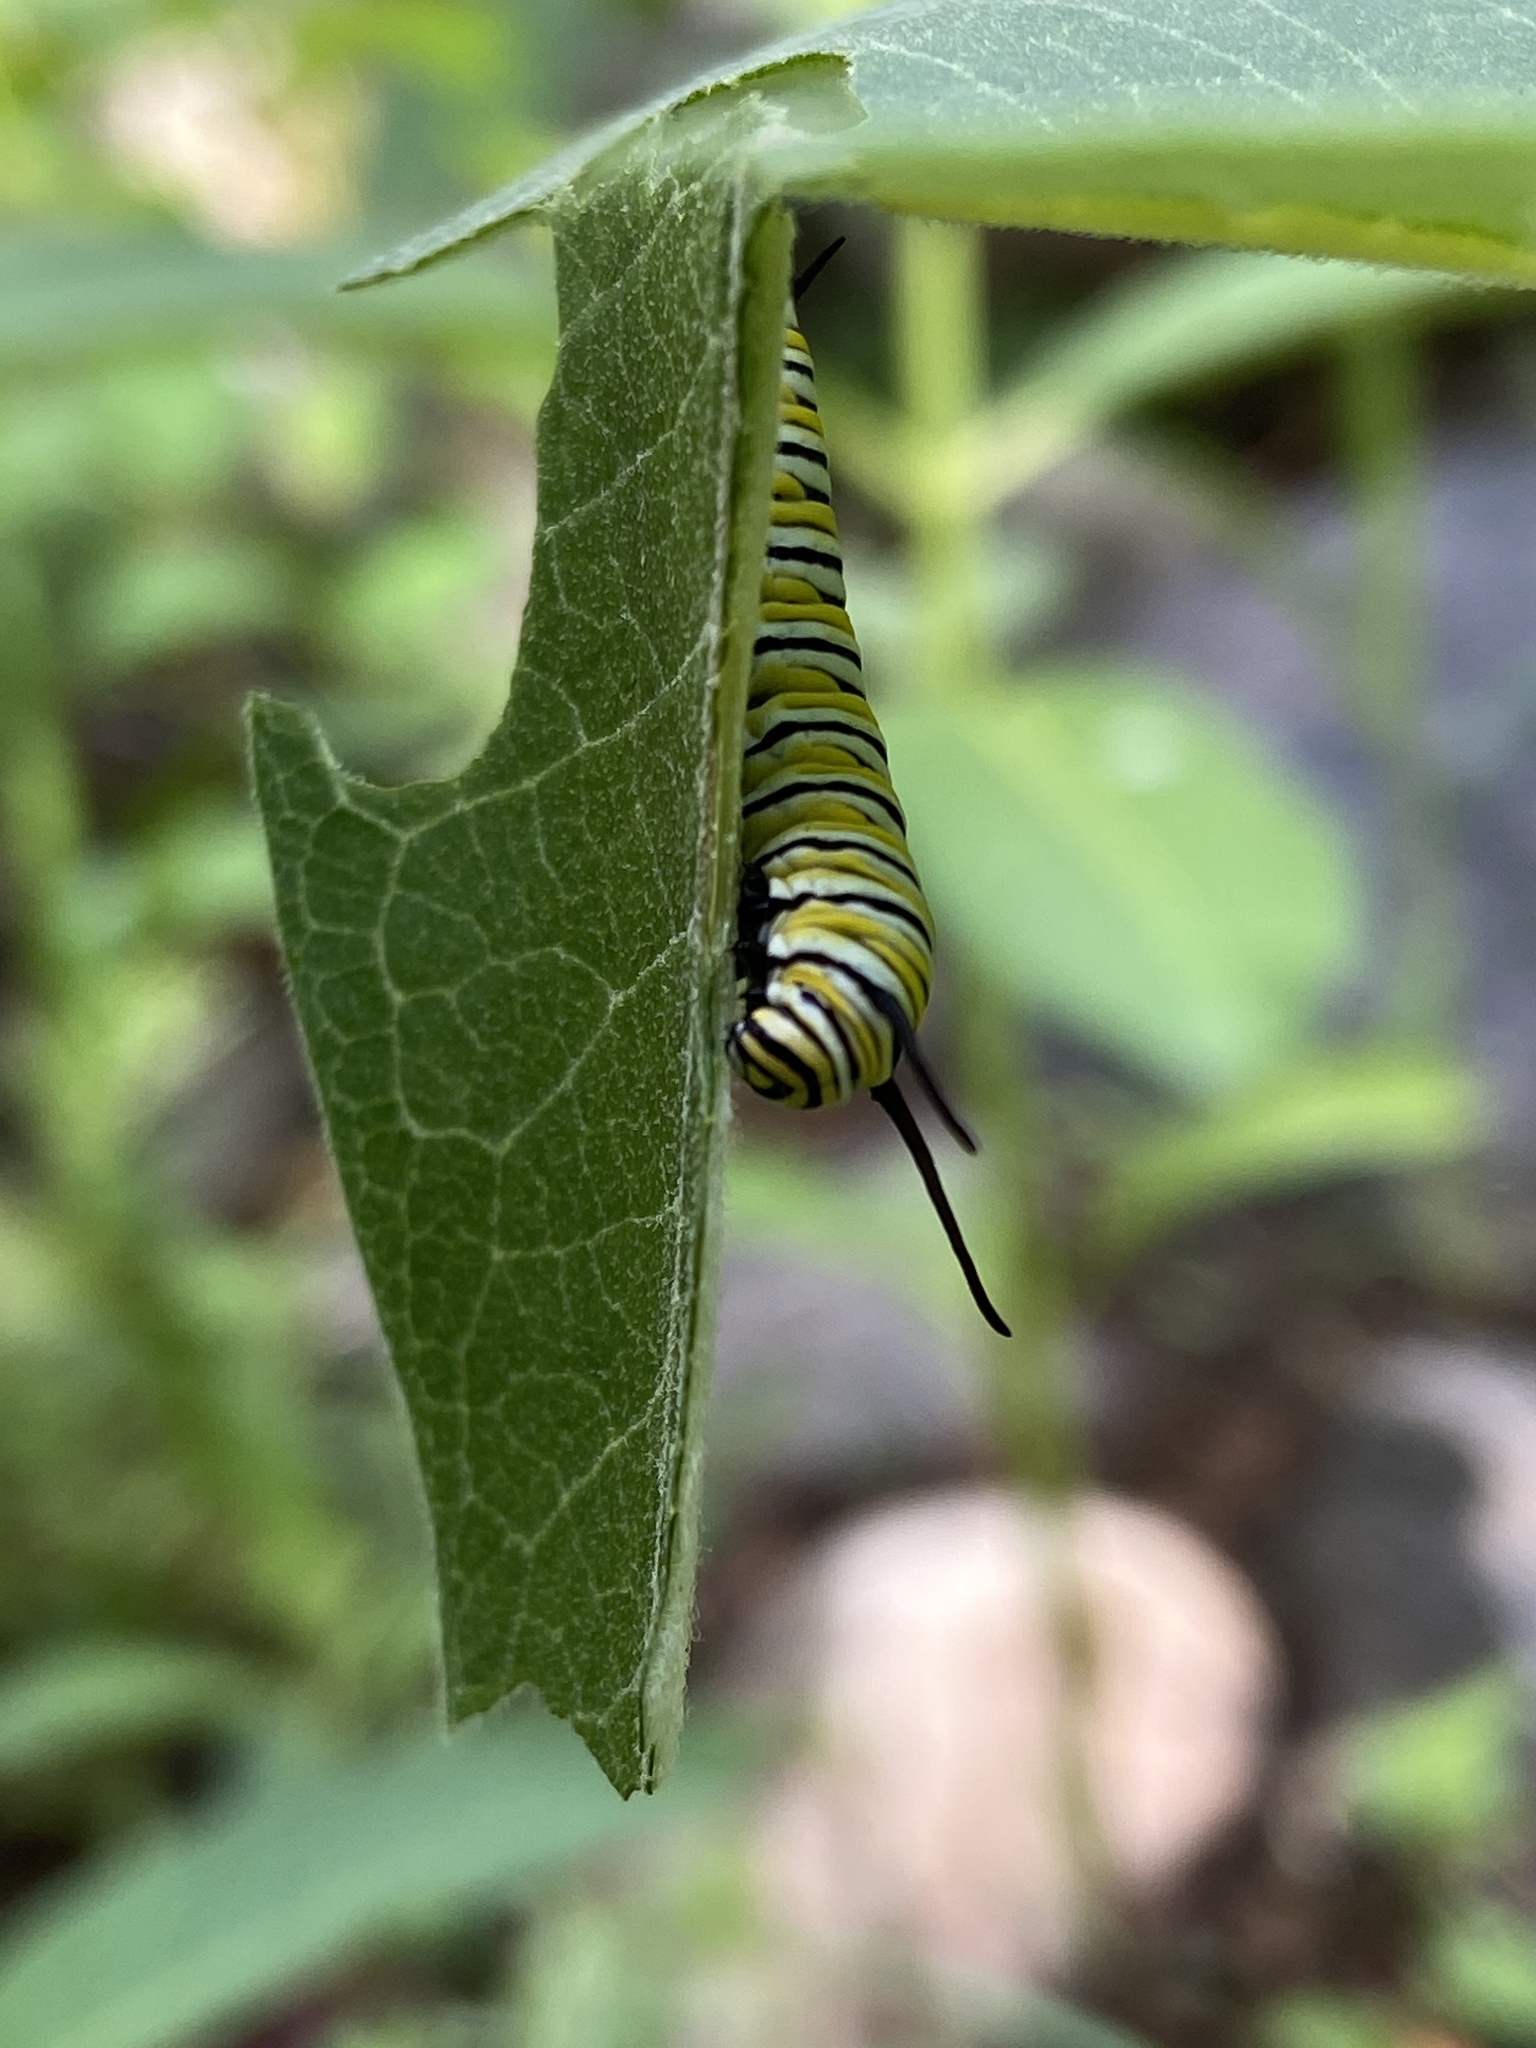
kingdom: Animalia
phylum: Arthropoda
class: Insecta
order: Lepidoptera
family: Nymphalidae
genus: Danaus
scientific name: Danaus plexippus
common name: Monarch
